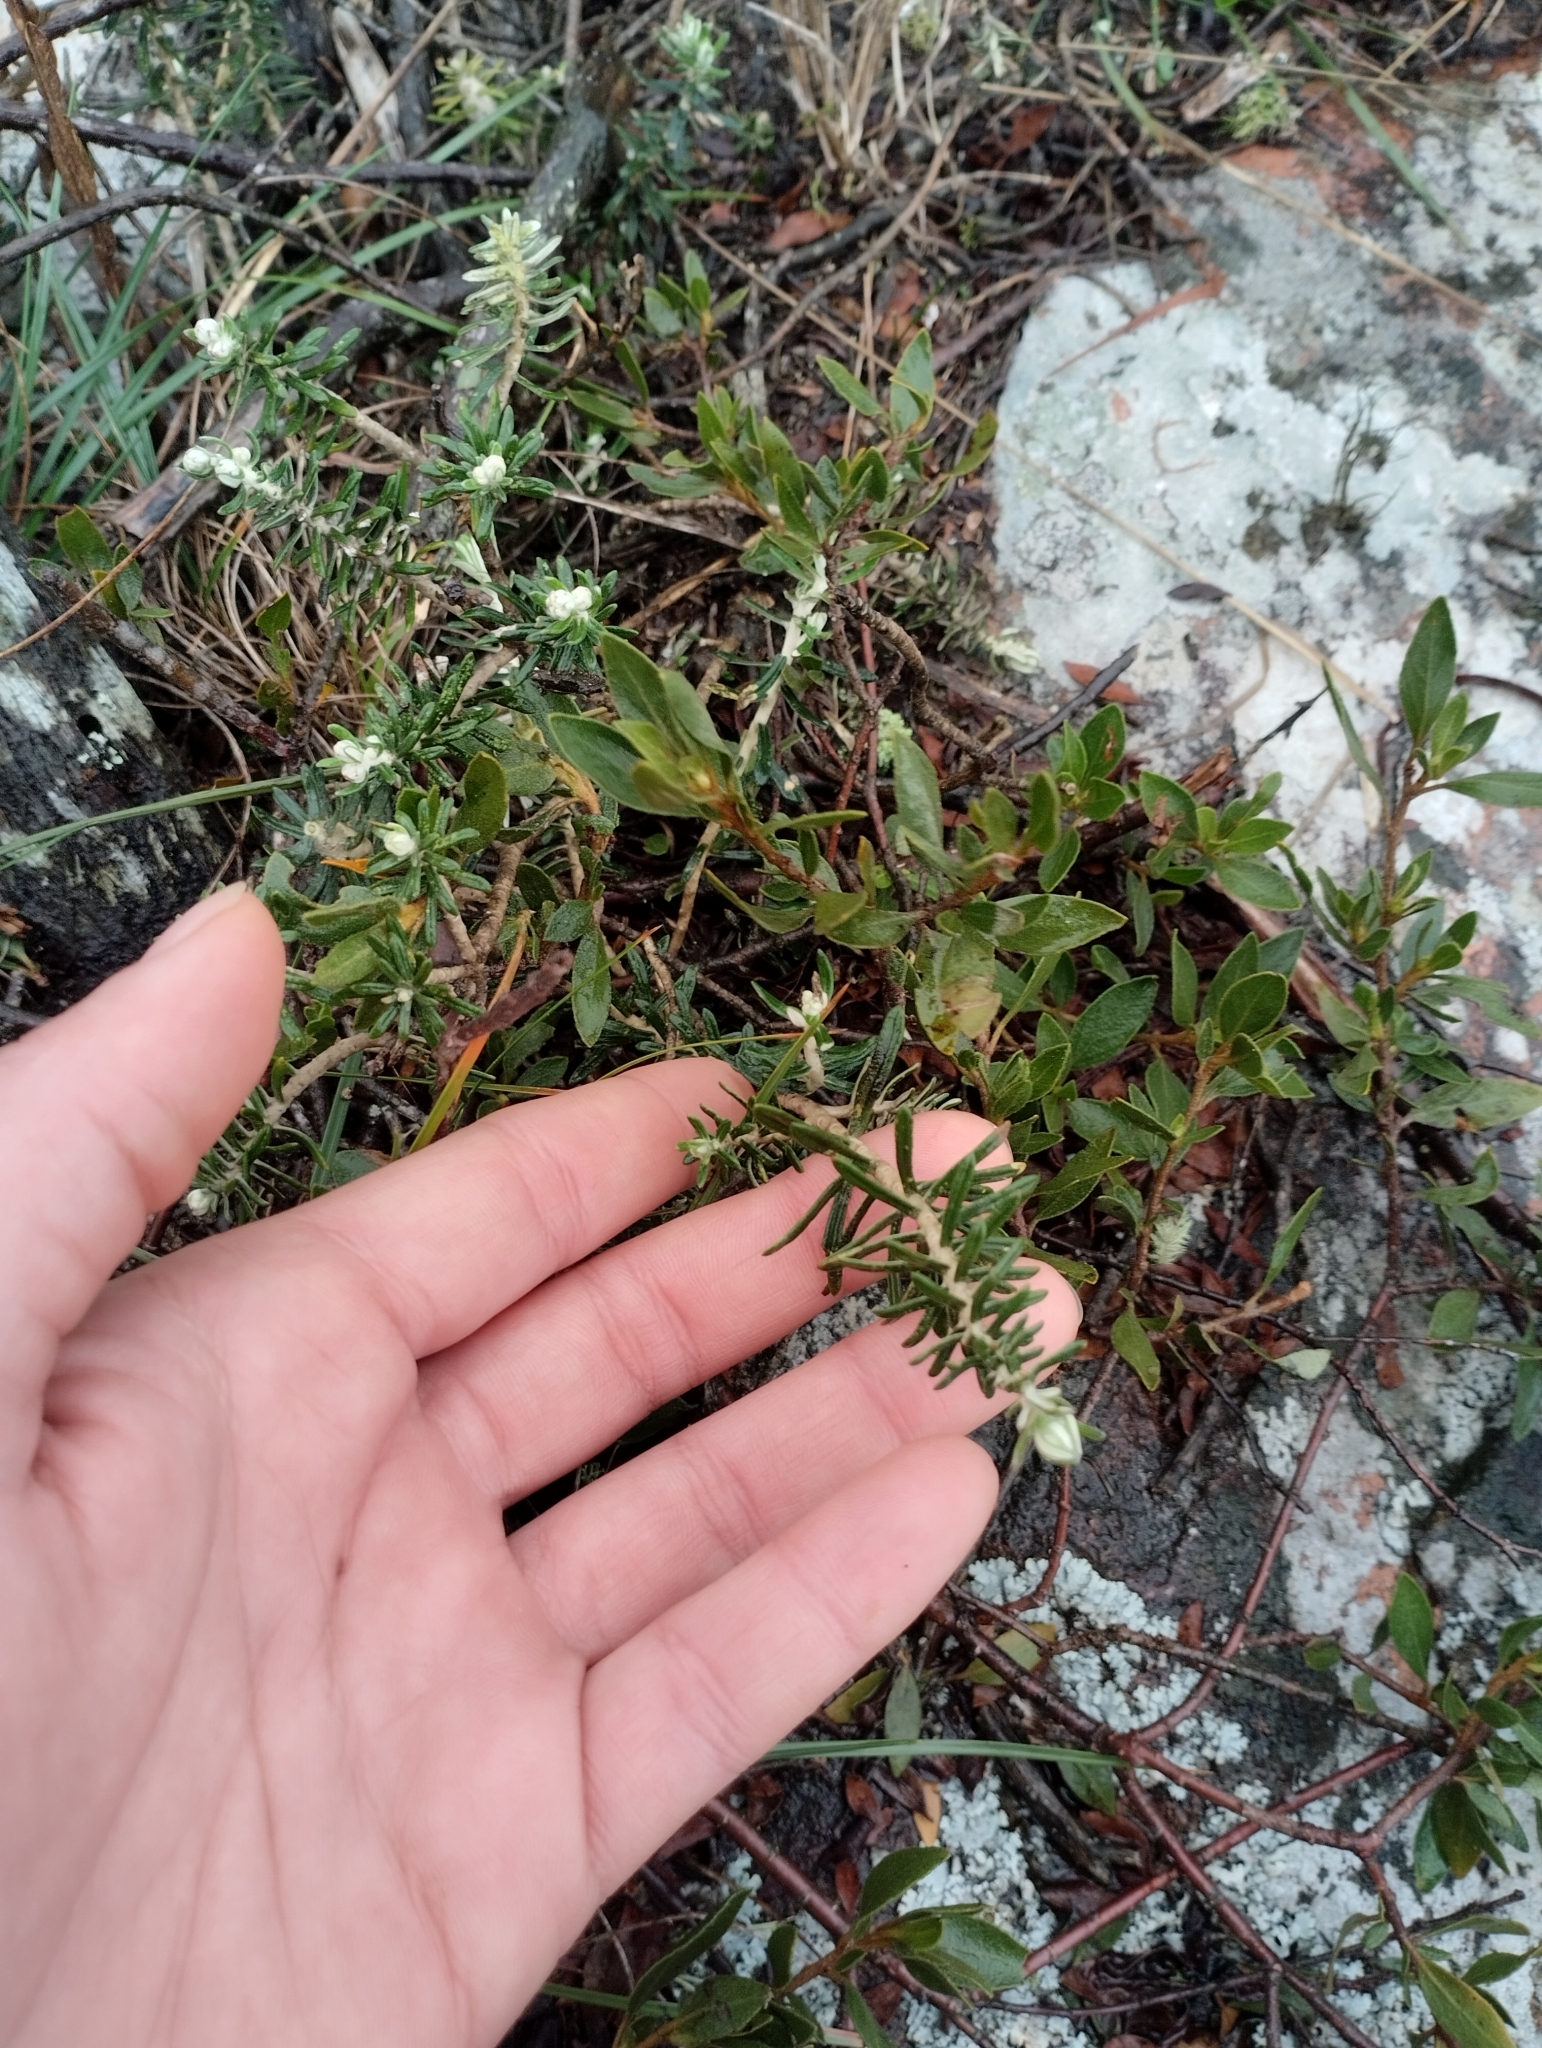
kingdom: Plantae
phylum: Tracheophyta
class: Magnoliopsida
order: Asterales
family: Asteraceae
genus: Baccharis
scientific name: Baccharis patens
